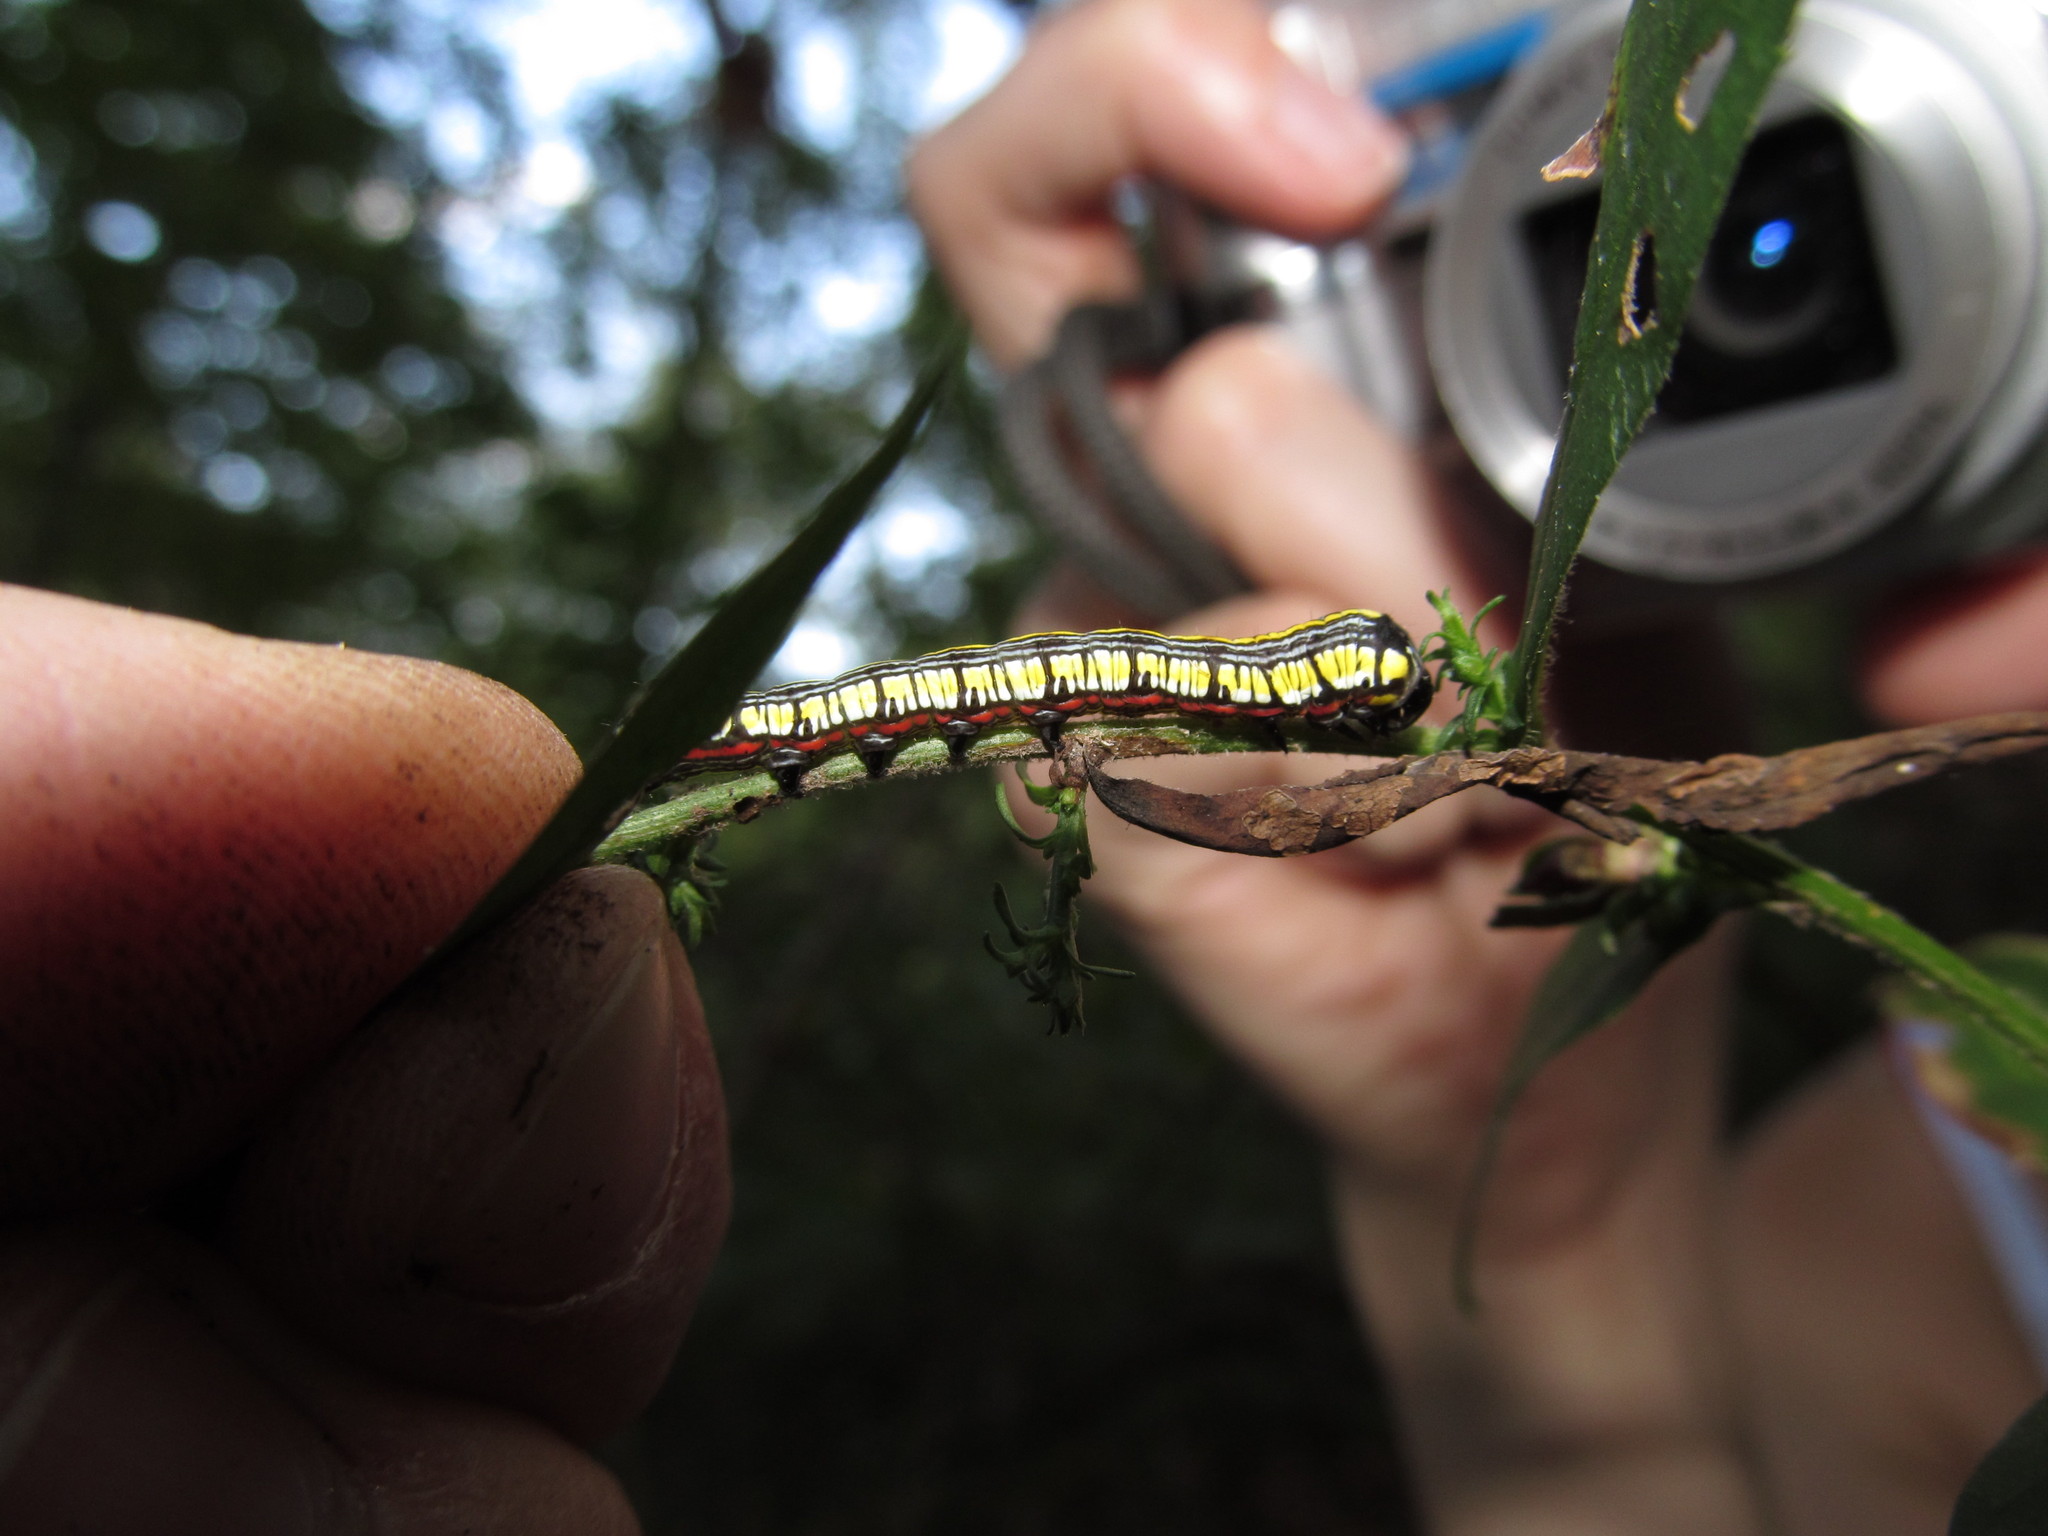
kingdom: Animalia
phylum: Arthropoda
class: Insecta
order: Lepidoptera
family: Noctuidae
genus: Cucullia
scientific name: Cucullia convexipennis
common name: Brown-hooded owlet
